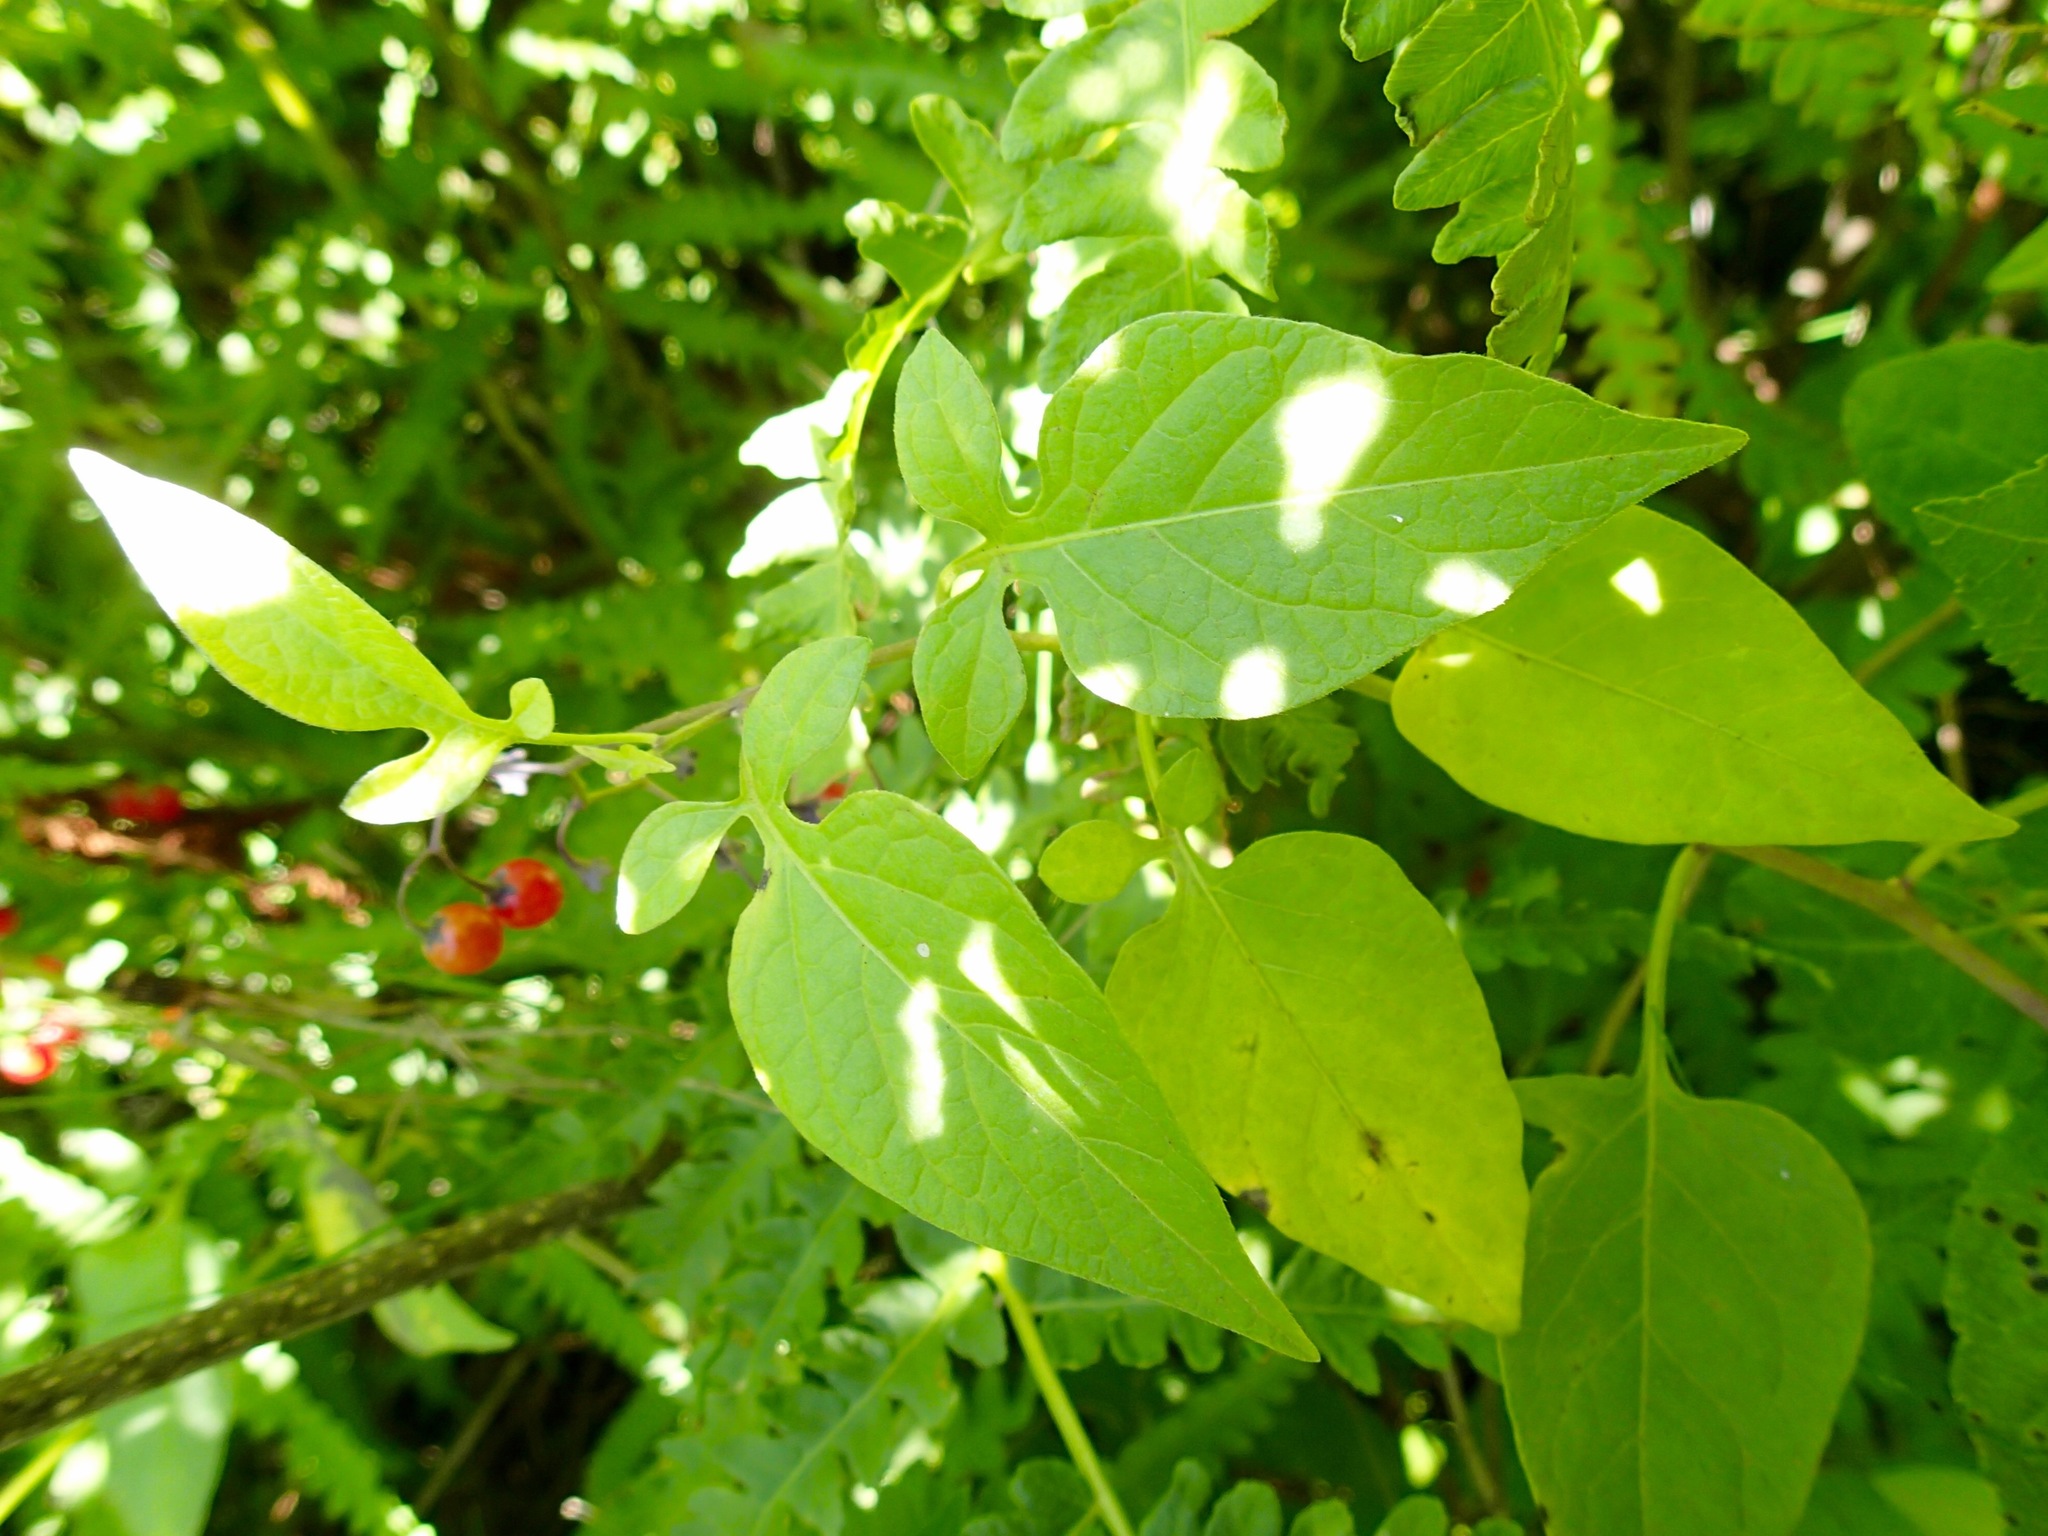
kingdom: Plantae
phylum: Tracheophyta
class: Magnoliopsida
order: Solanales
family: Solanaceae
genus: Solanum
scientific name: Solanum dulcamara
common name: Climbing nightshade
